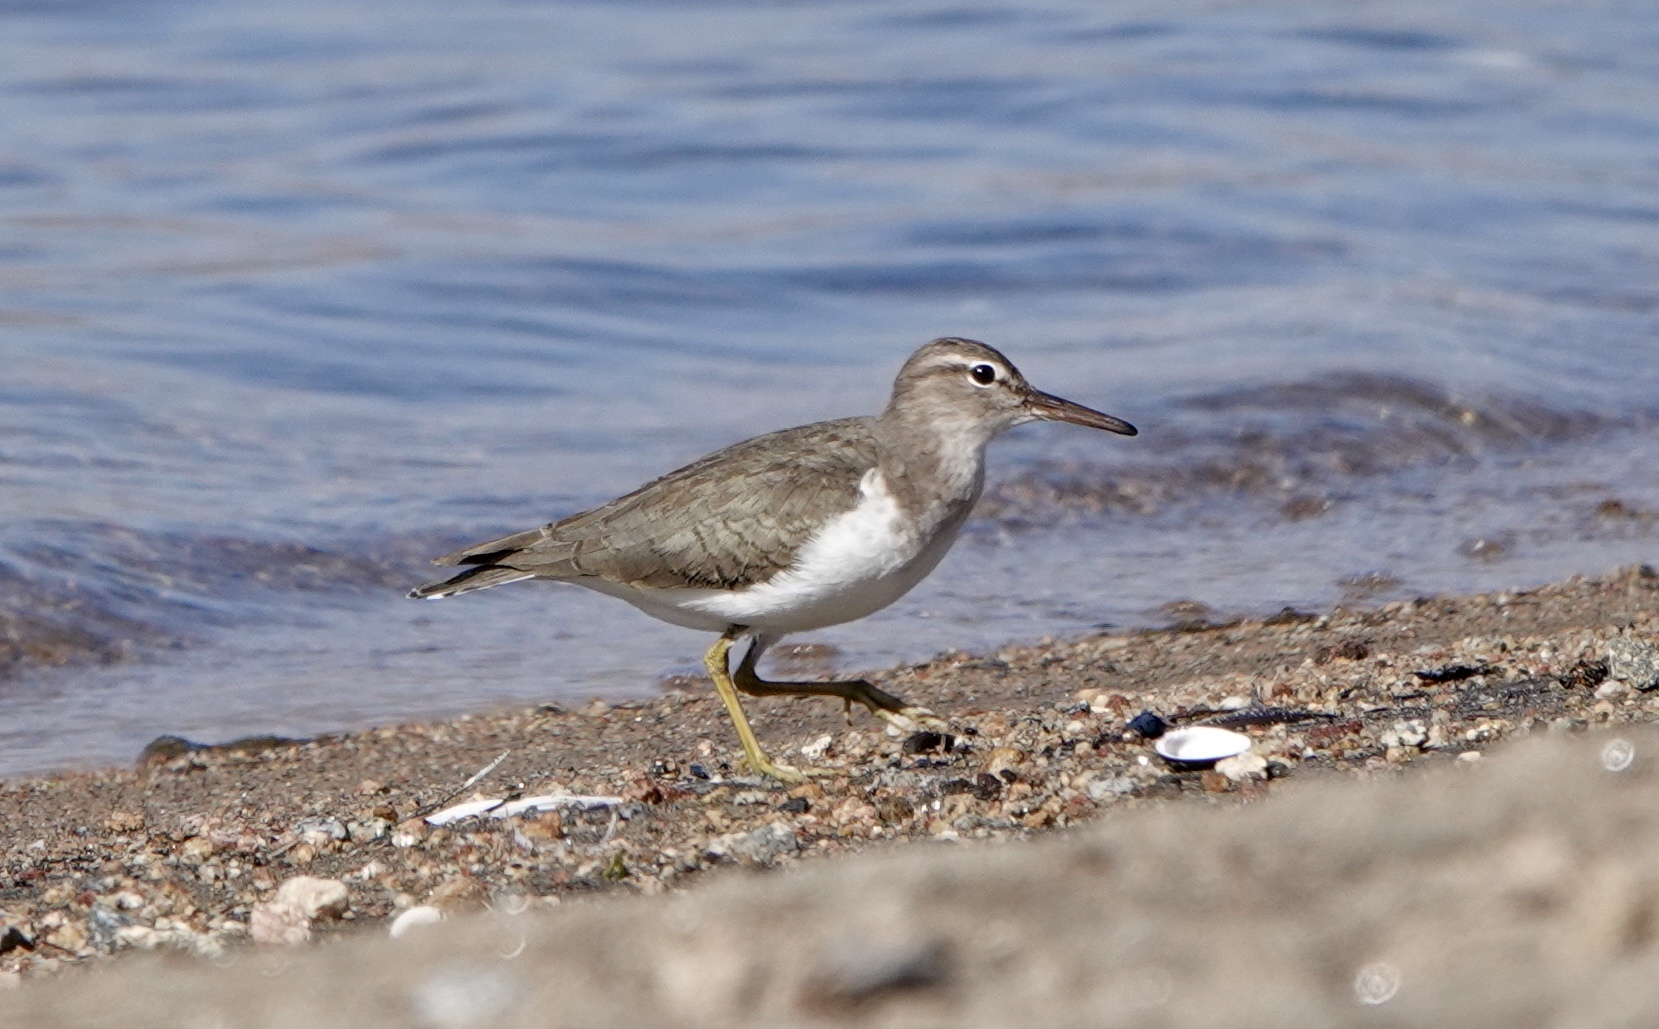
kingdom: Animalia
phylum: Chordata
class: Aves
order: Charadriiformes
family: Scolopacidae
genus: Actitis
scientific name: Actitis macularius
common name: Spotted sandpiper
